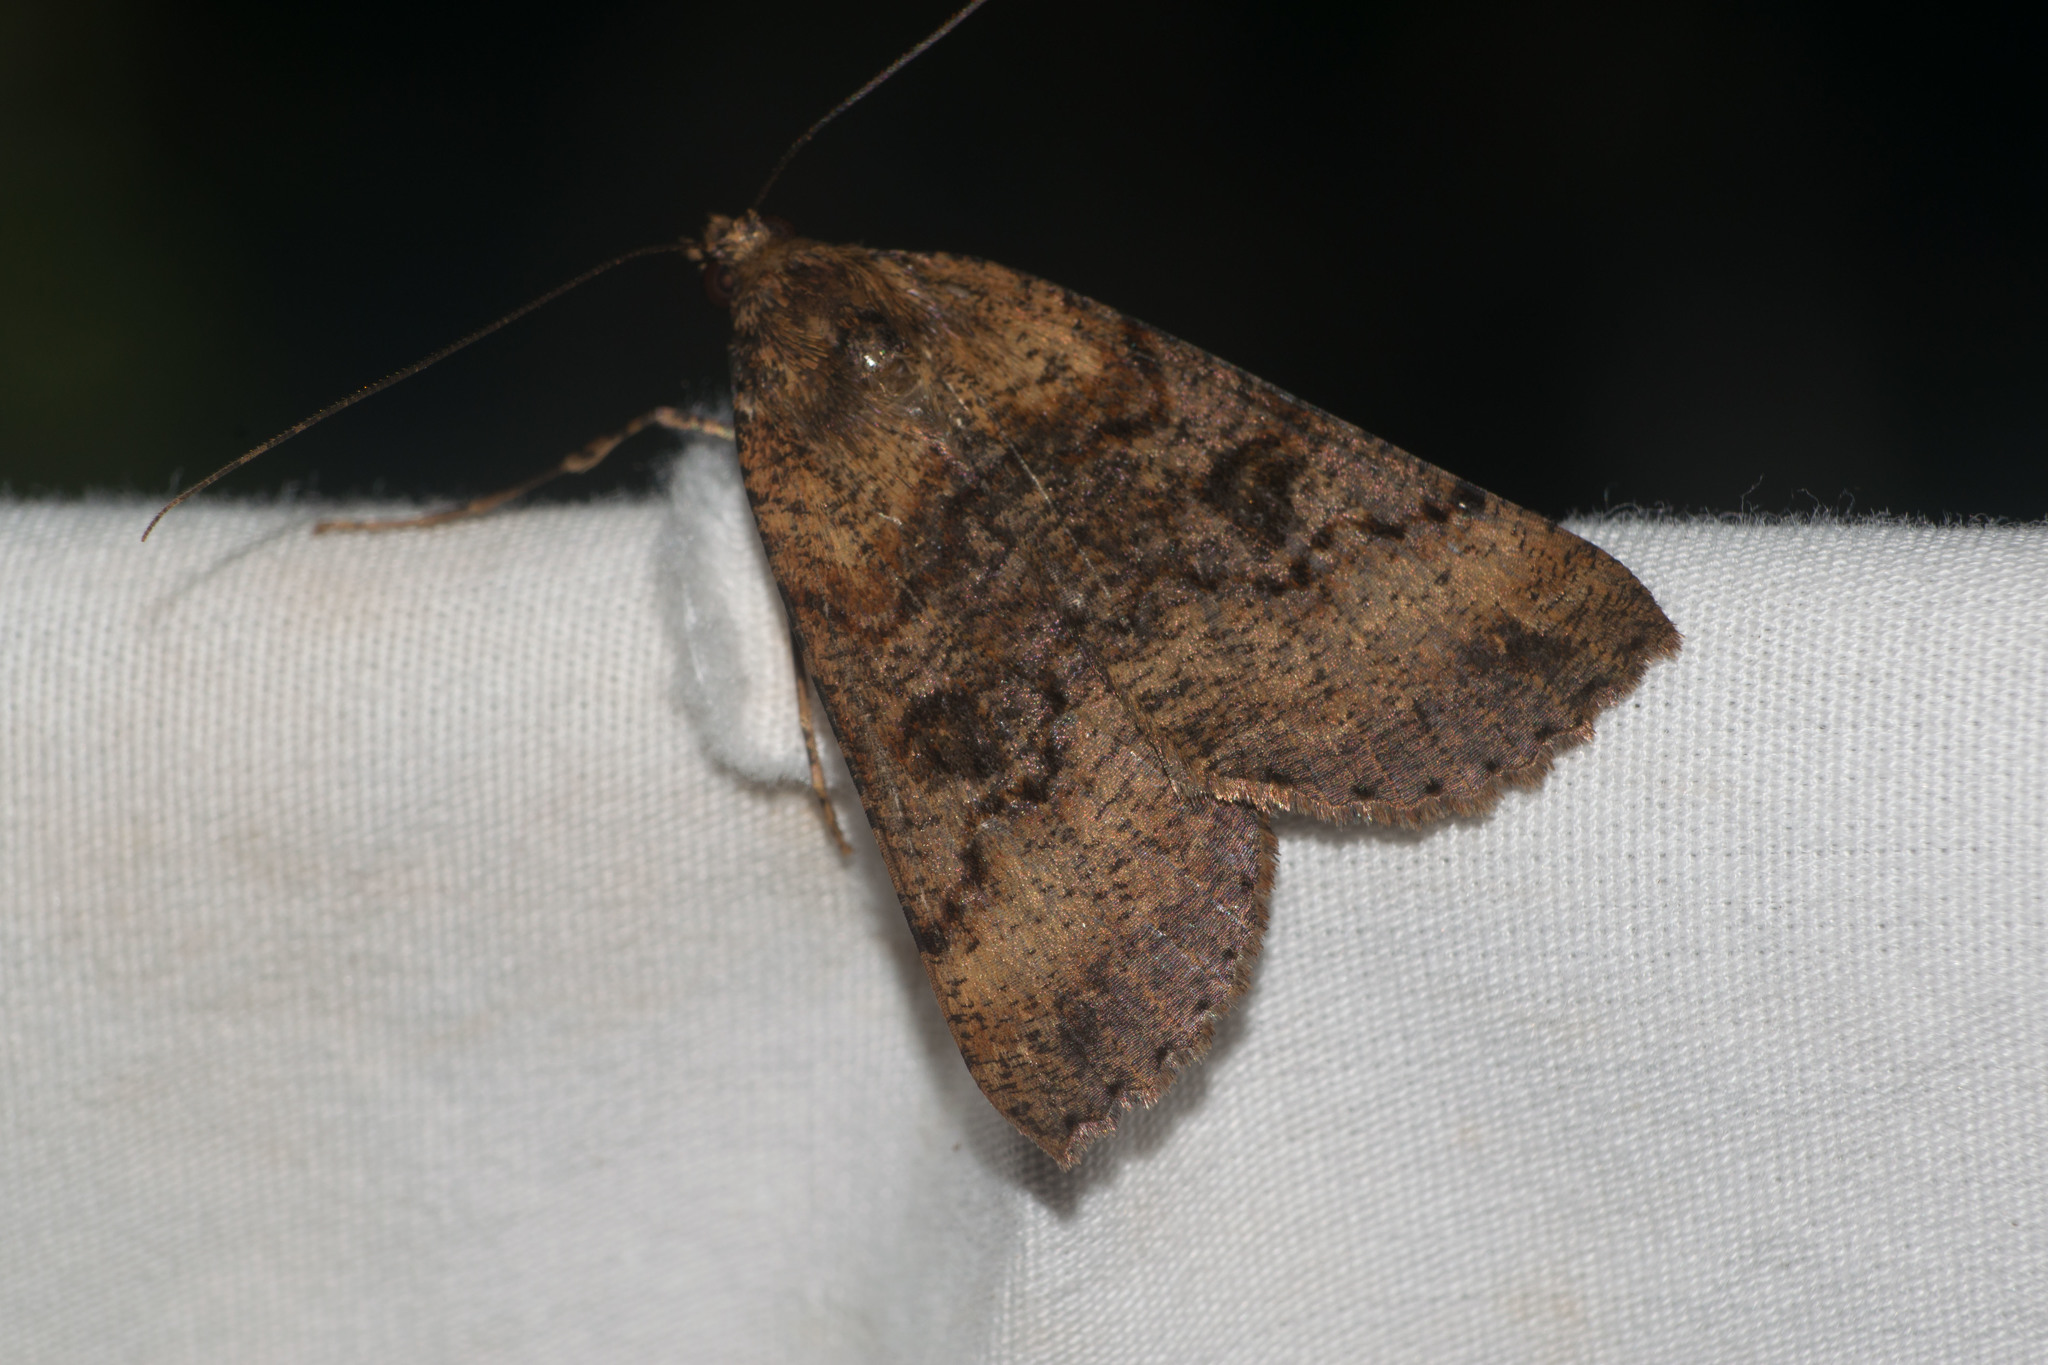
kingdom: Animalia
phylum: Arthropoda
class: Insecta
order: Lepidoptera
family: Geometridae
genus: Scotorythra
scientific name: Scotorythra rara
